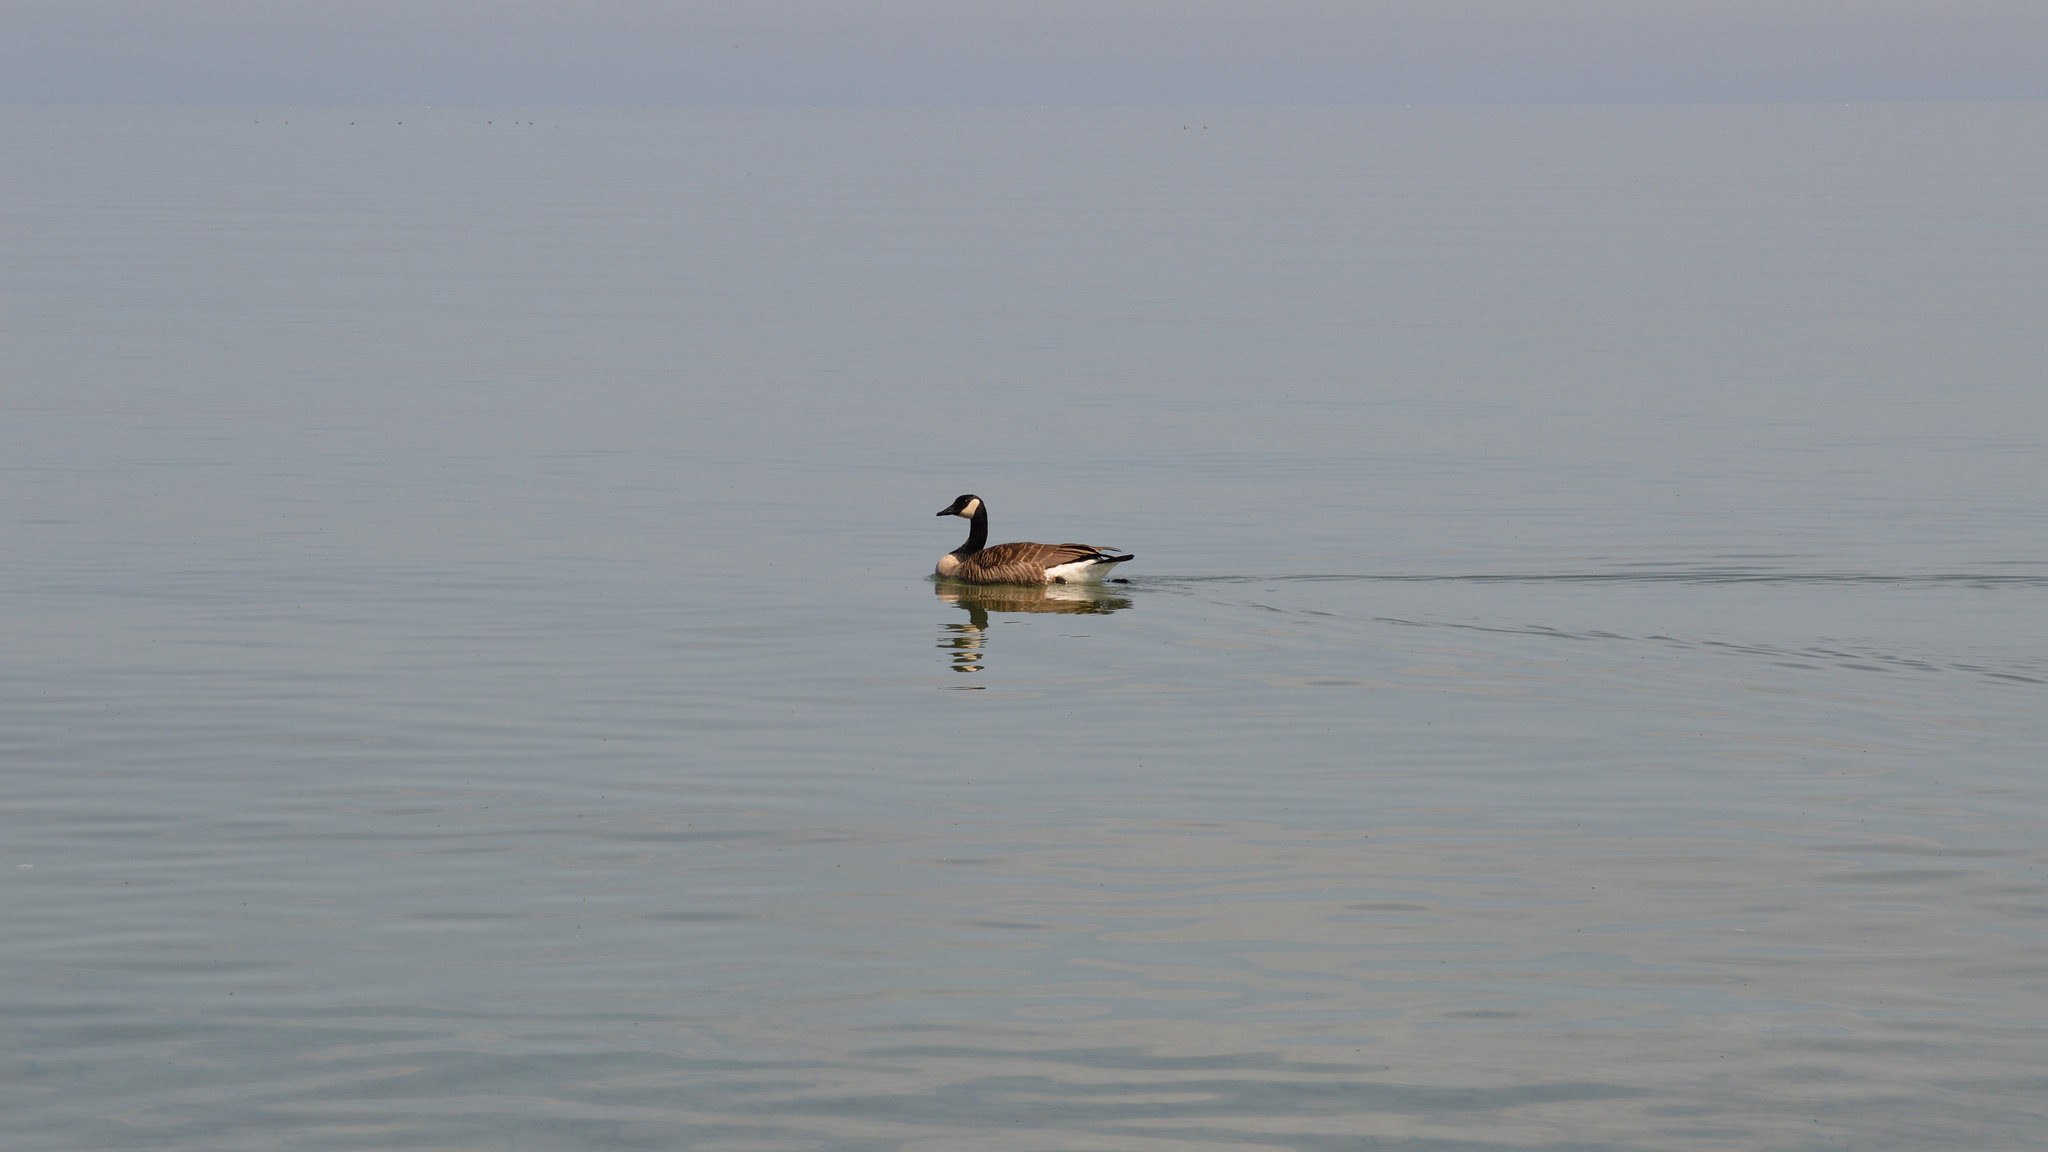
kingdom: Animalia
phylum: Chordata
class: Aves
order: Anseriformes
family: Anatidae
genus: Branta
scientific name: Branta canadensis
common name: Canada goose
